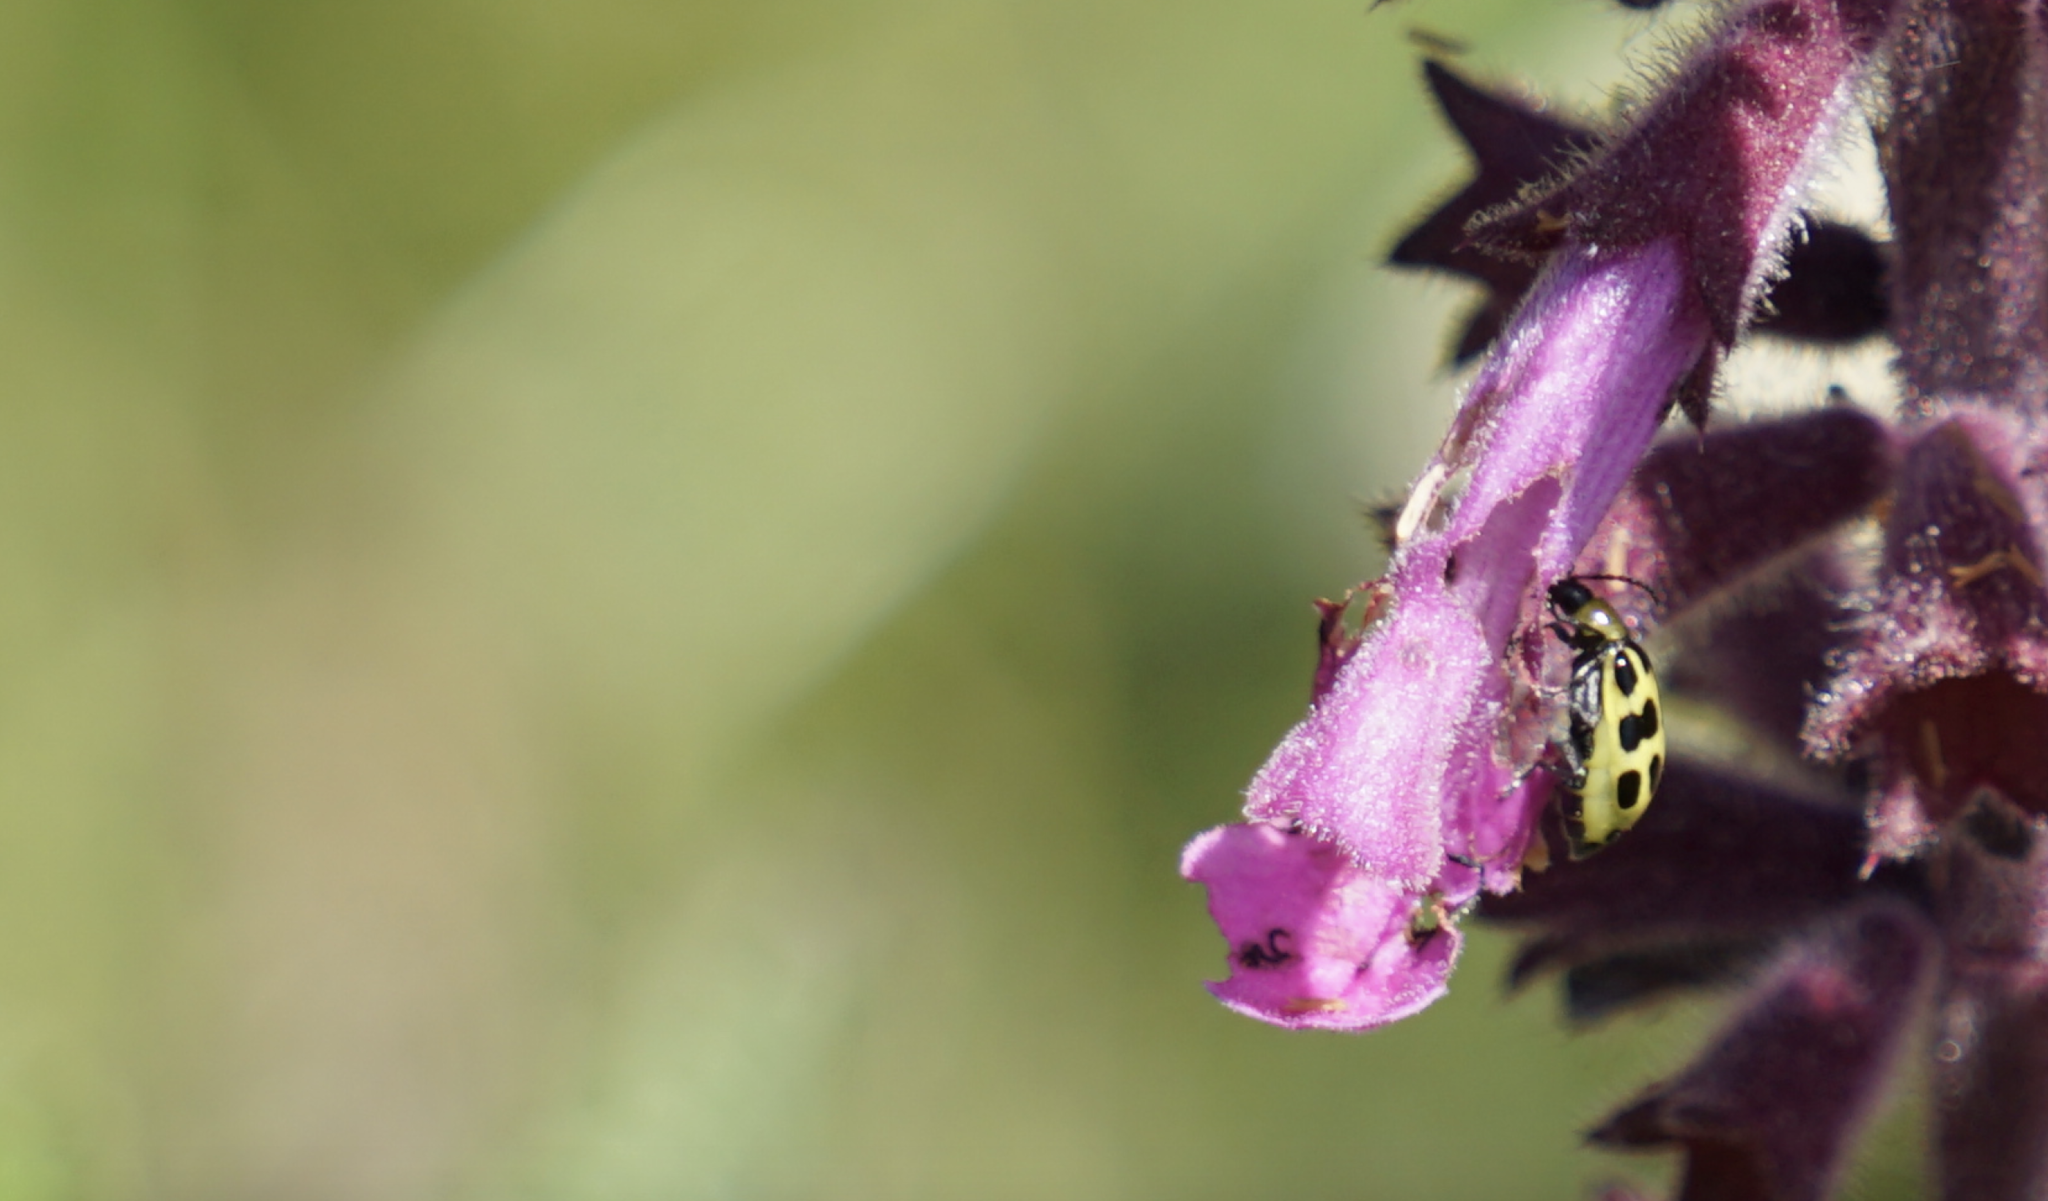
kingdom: Animalia
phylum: Arthropoda
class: Insecta
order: Coleoptera
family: Chrysomelidae
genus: Diabrotica
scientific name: Diabrotica undecimpunctata
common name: Spotted cucumber beetle
